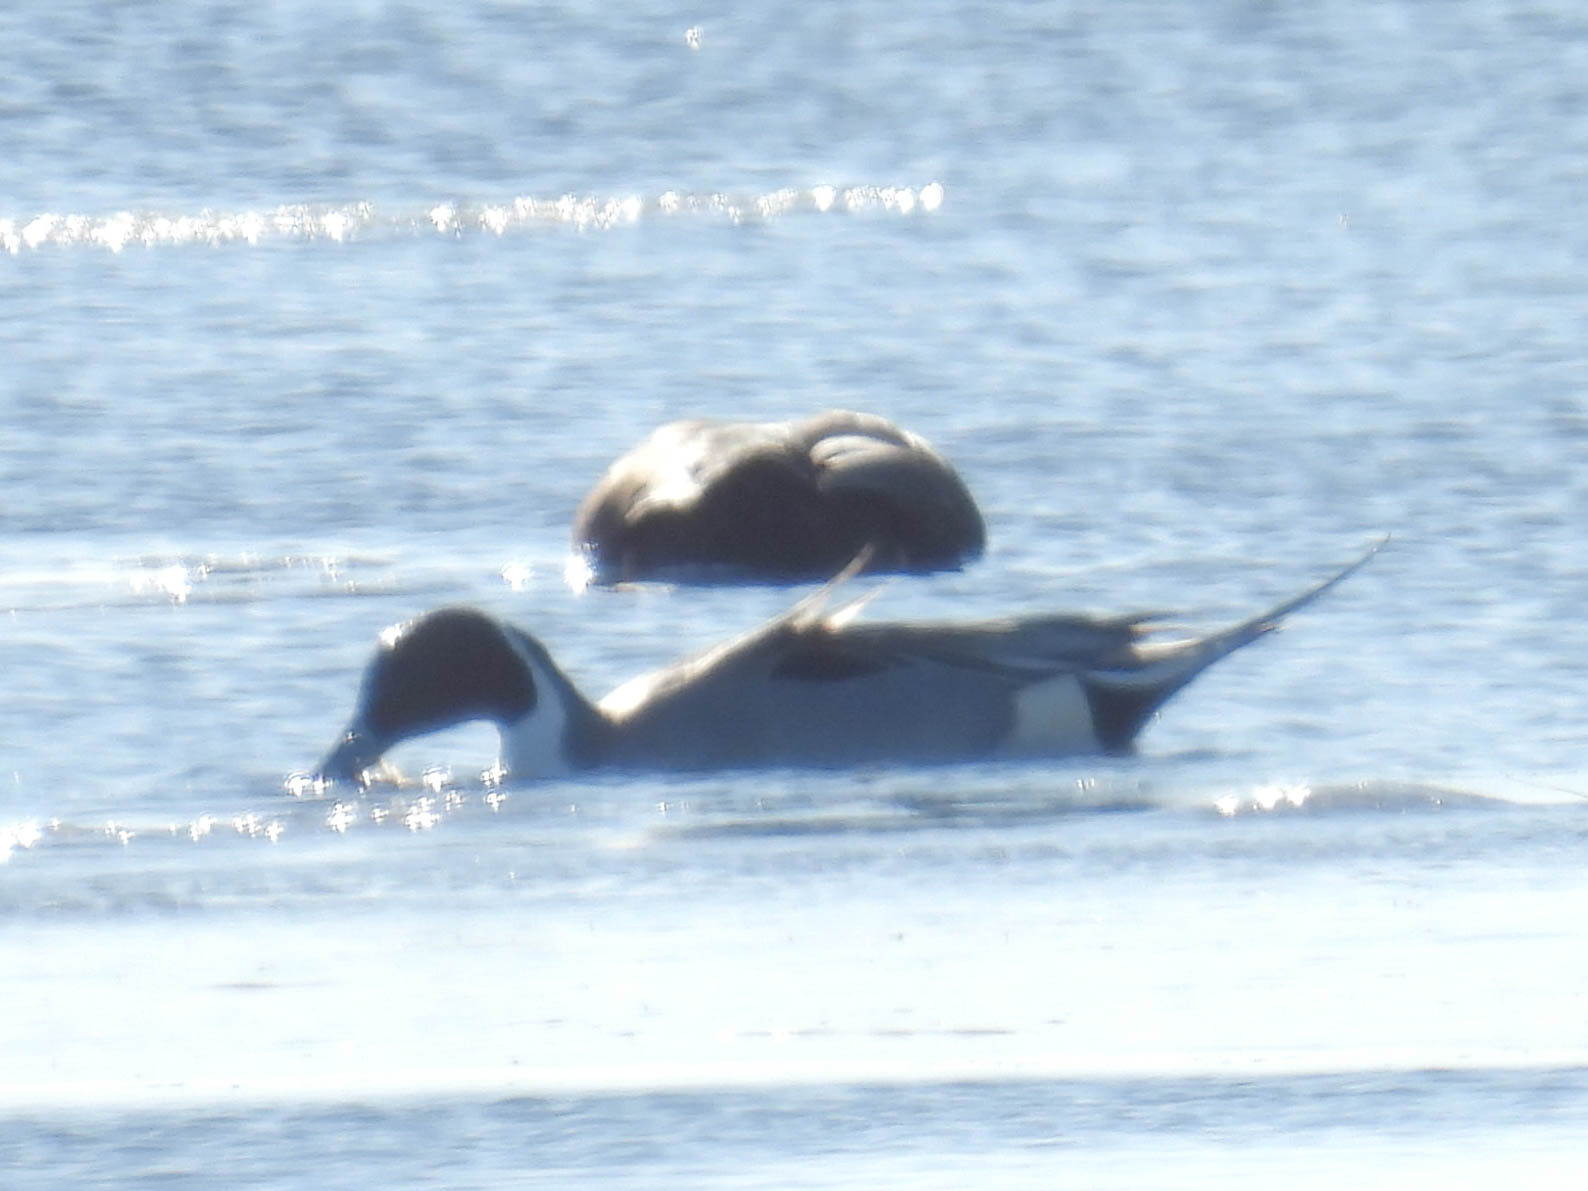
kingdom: Animalia
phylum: Chordata
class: Aves
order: Anseriformes
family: Anatidae
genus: Anas
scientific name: Anas acuta
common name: Northern pintail
